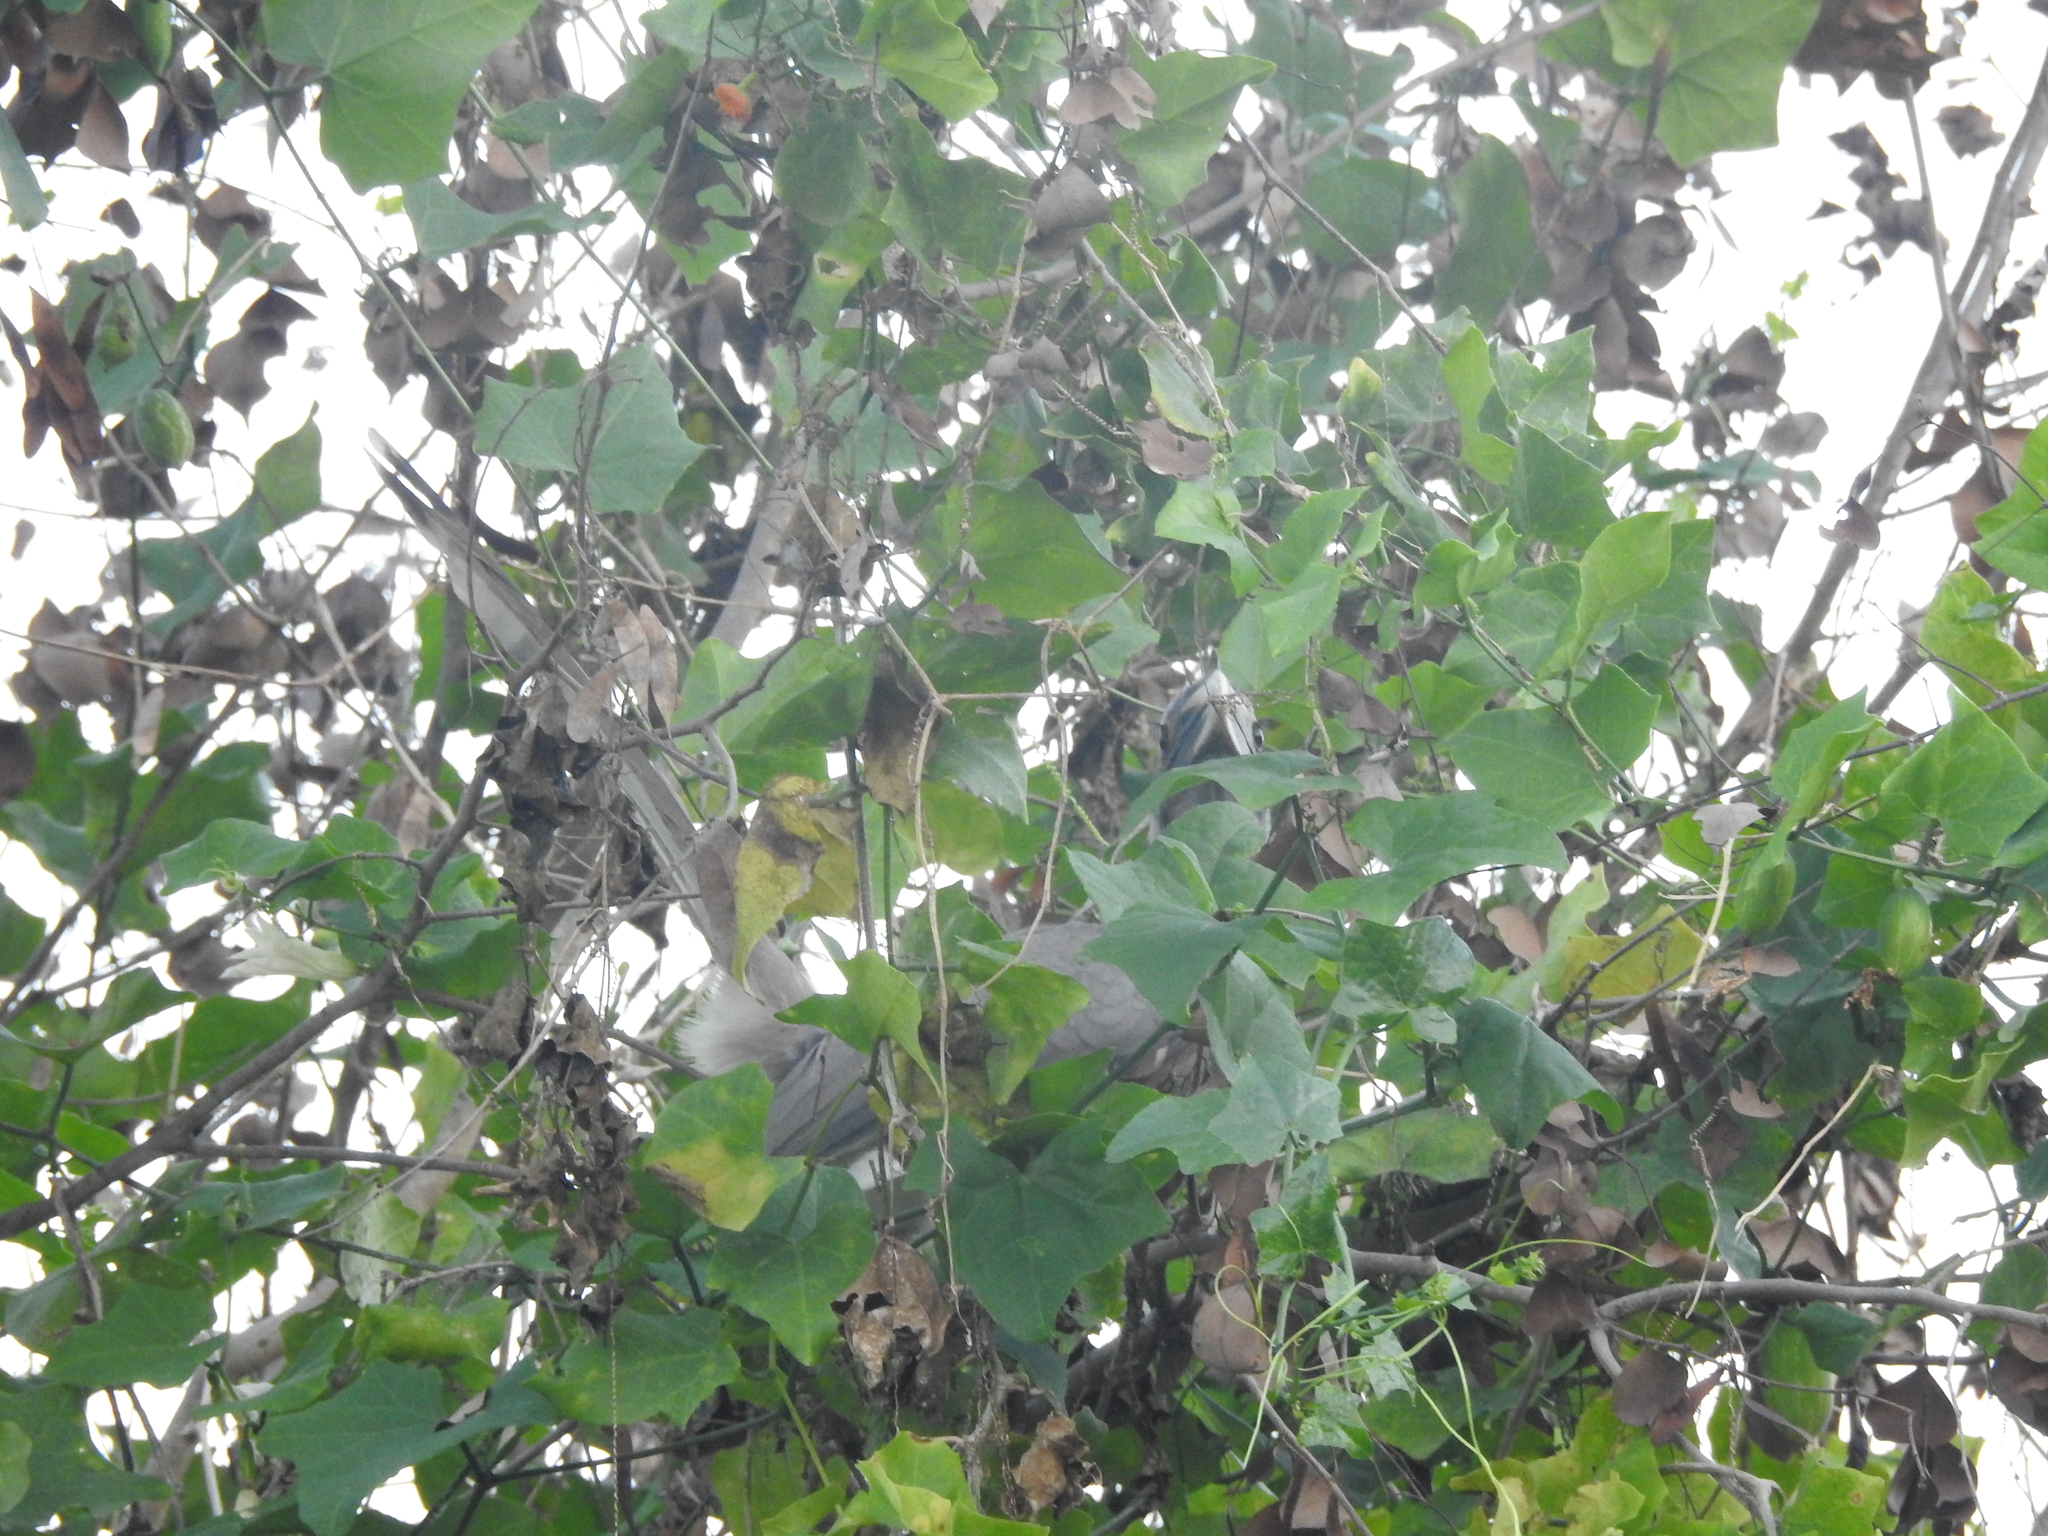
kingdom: Animalia
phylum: Chordata
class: Aves
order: Bucerotiformes
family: Bucerotidae
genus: Ocyceros
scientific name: Ocyceros birostris
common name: Indian grey hornbill
